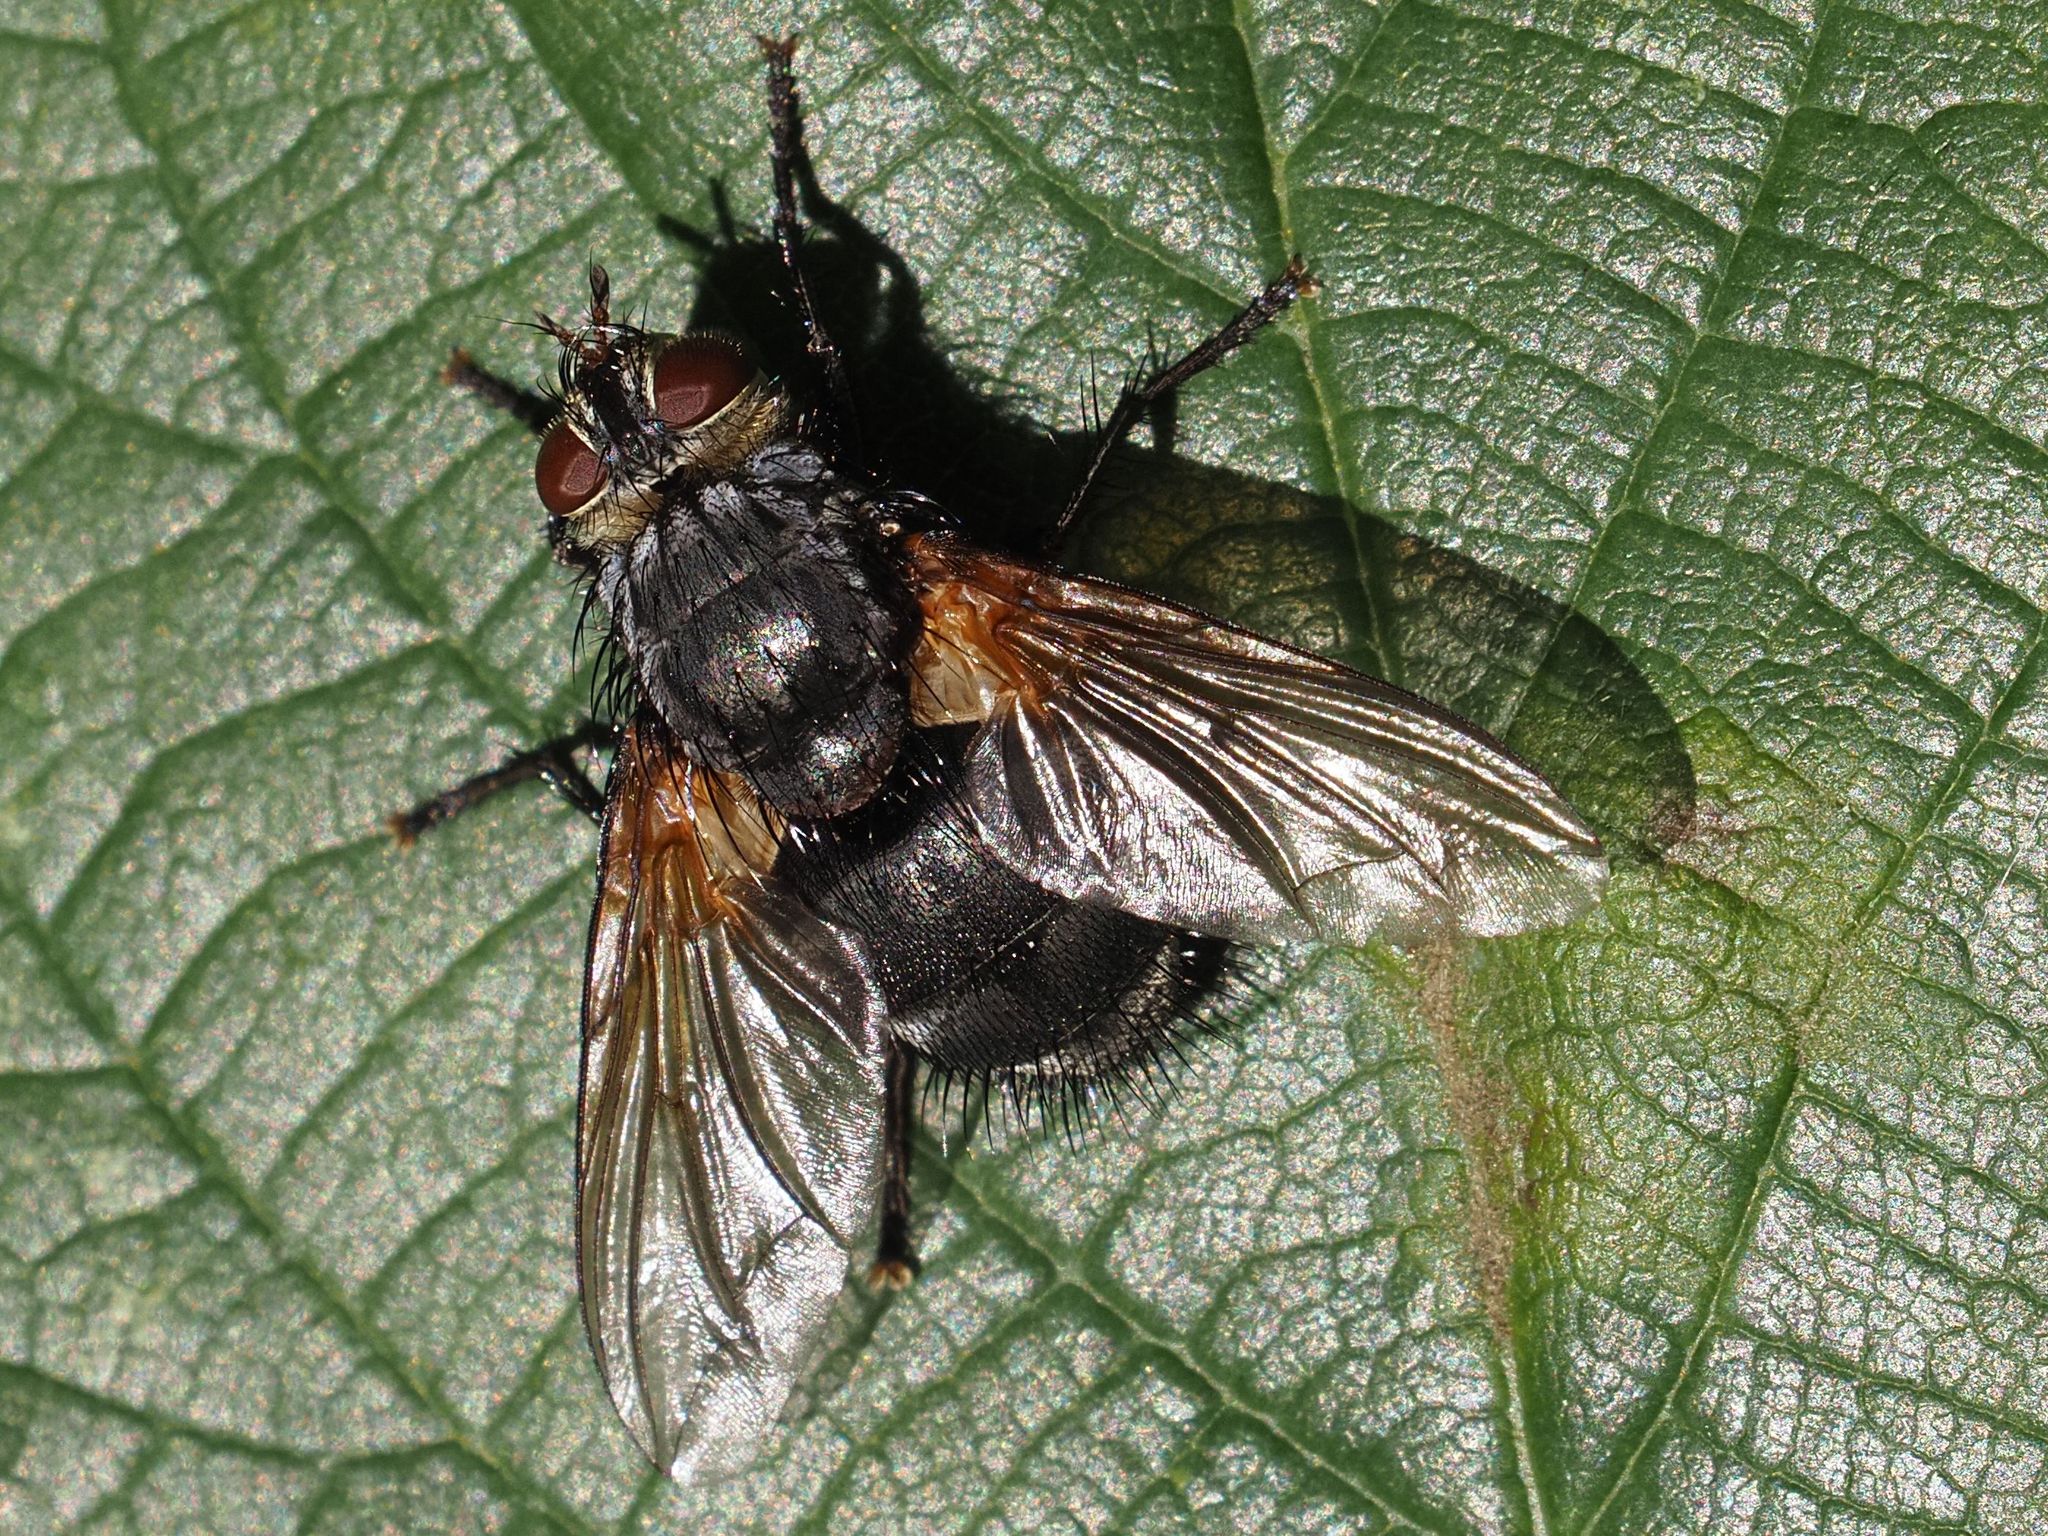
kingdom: Animalia
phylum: Arthropoda
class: Insecta
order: Diptera
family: Tachinidae
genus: Nemoraea
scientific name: Nemoraea pellucida
